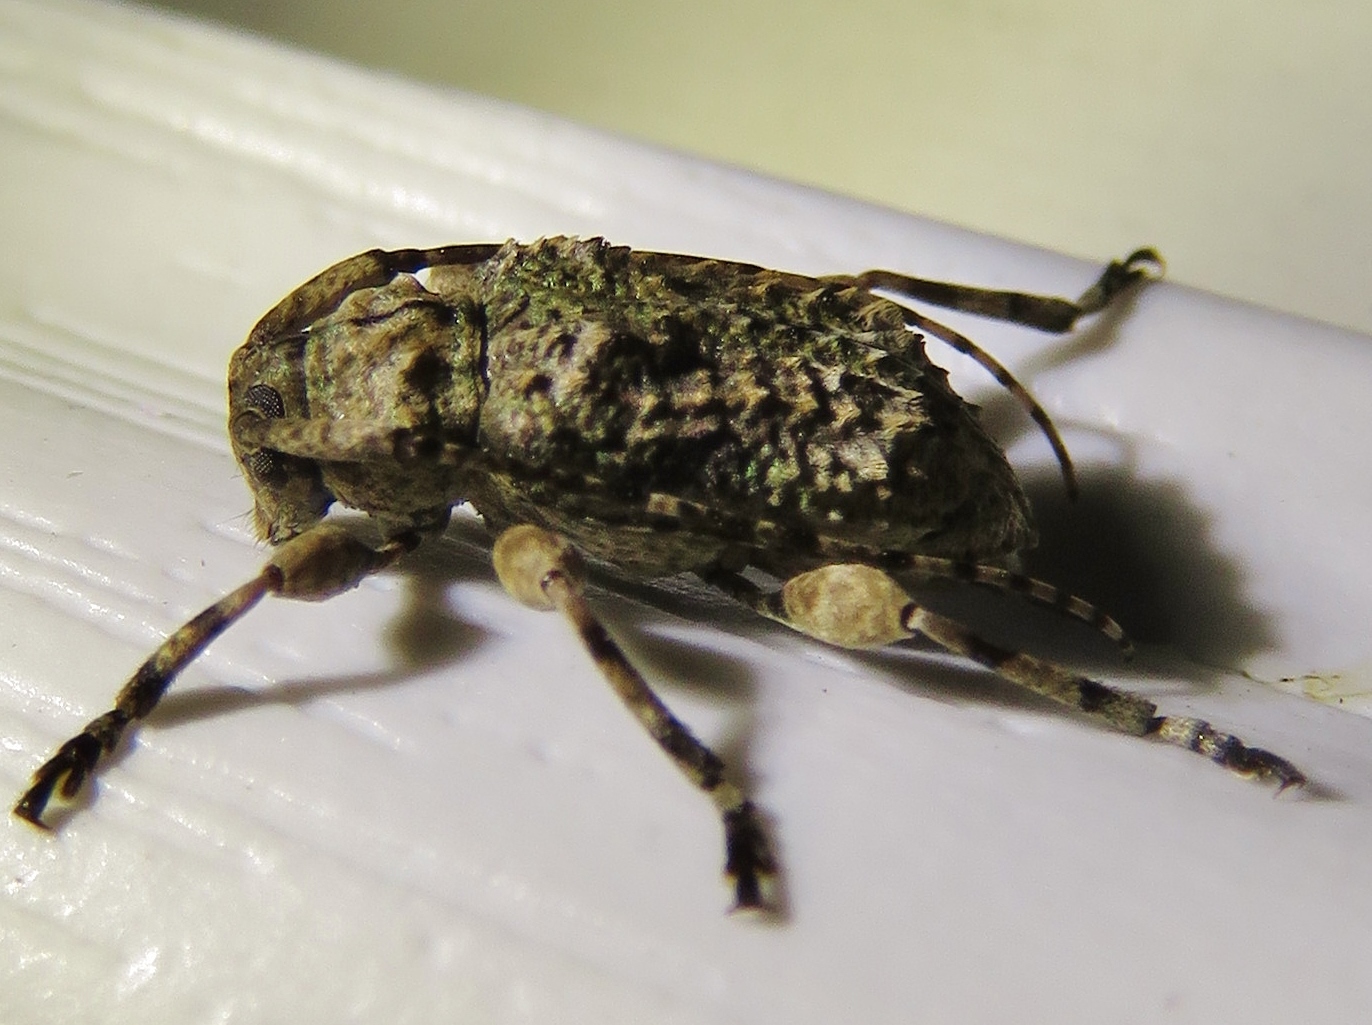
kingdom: Animalia
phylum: Arthropoda
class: Insecta
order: Coleoptera
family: Cerambycidae
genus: Leptostylus
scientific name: Leptostylus transversus
